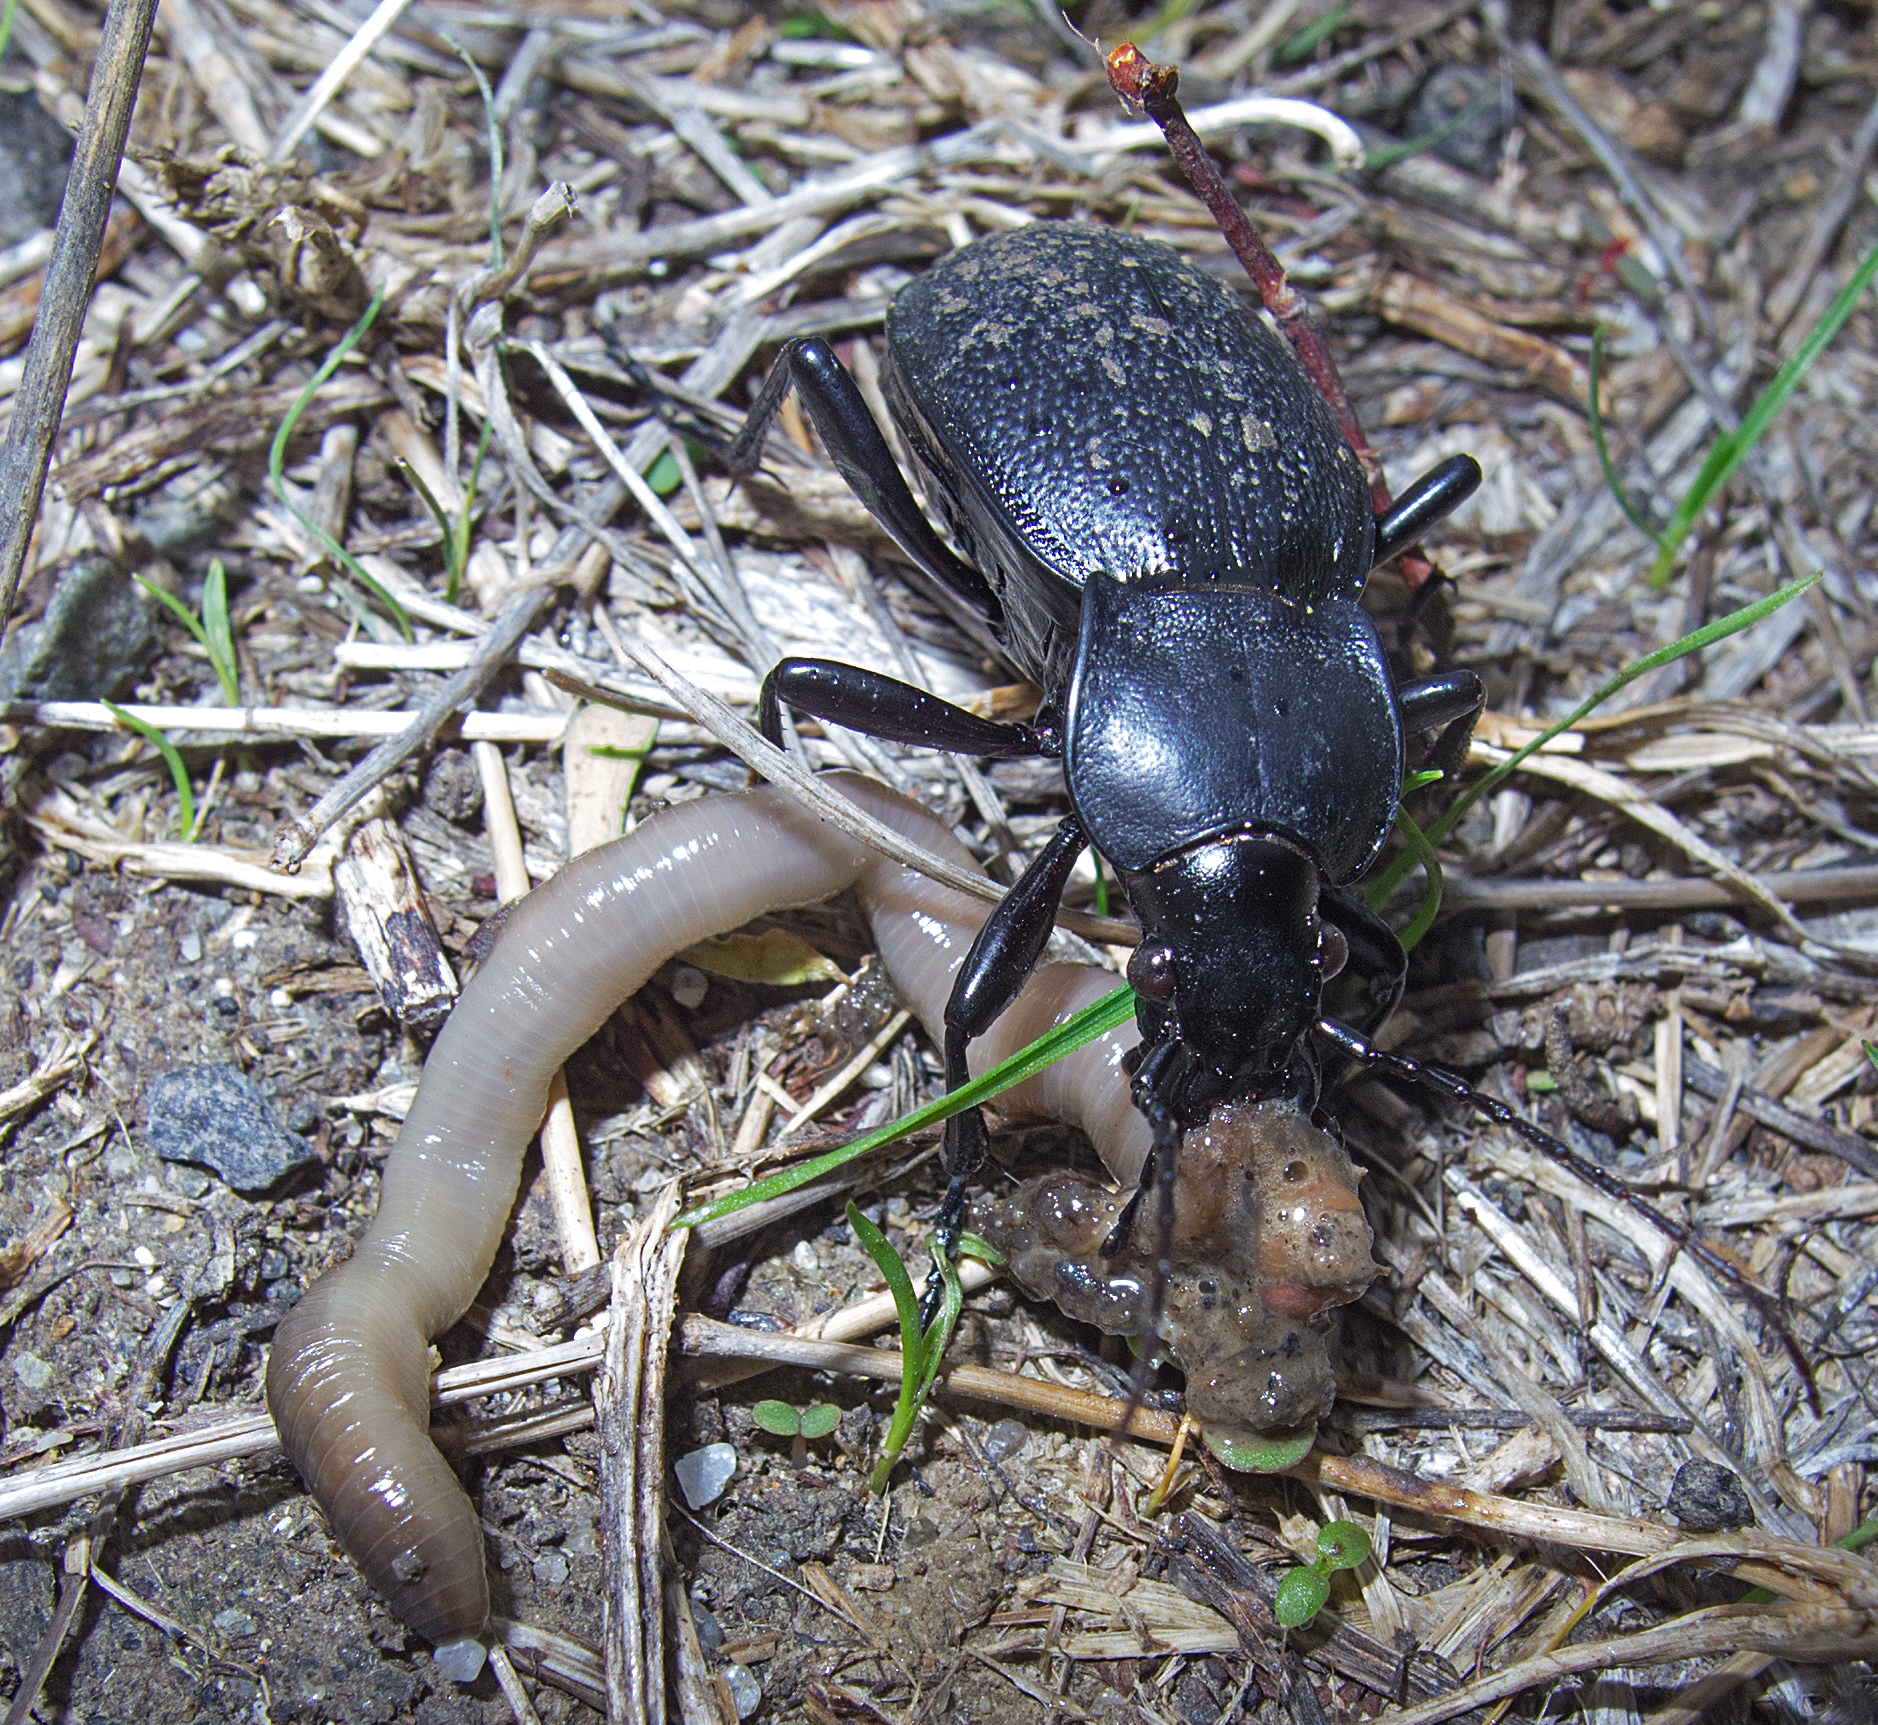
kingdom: Animalia
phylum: Arthropoda
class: Insecta
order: Coleoptera
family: Carabidae
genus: Carabus
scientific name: Carabus coriaceus
